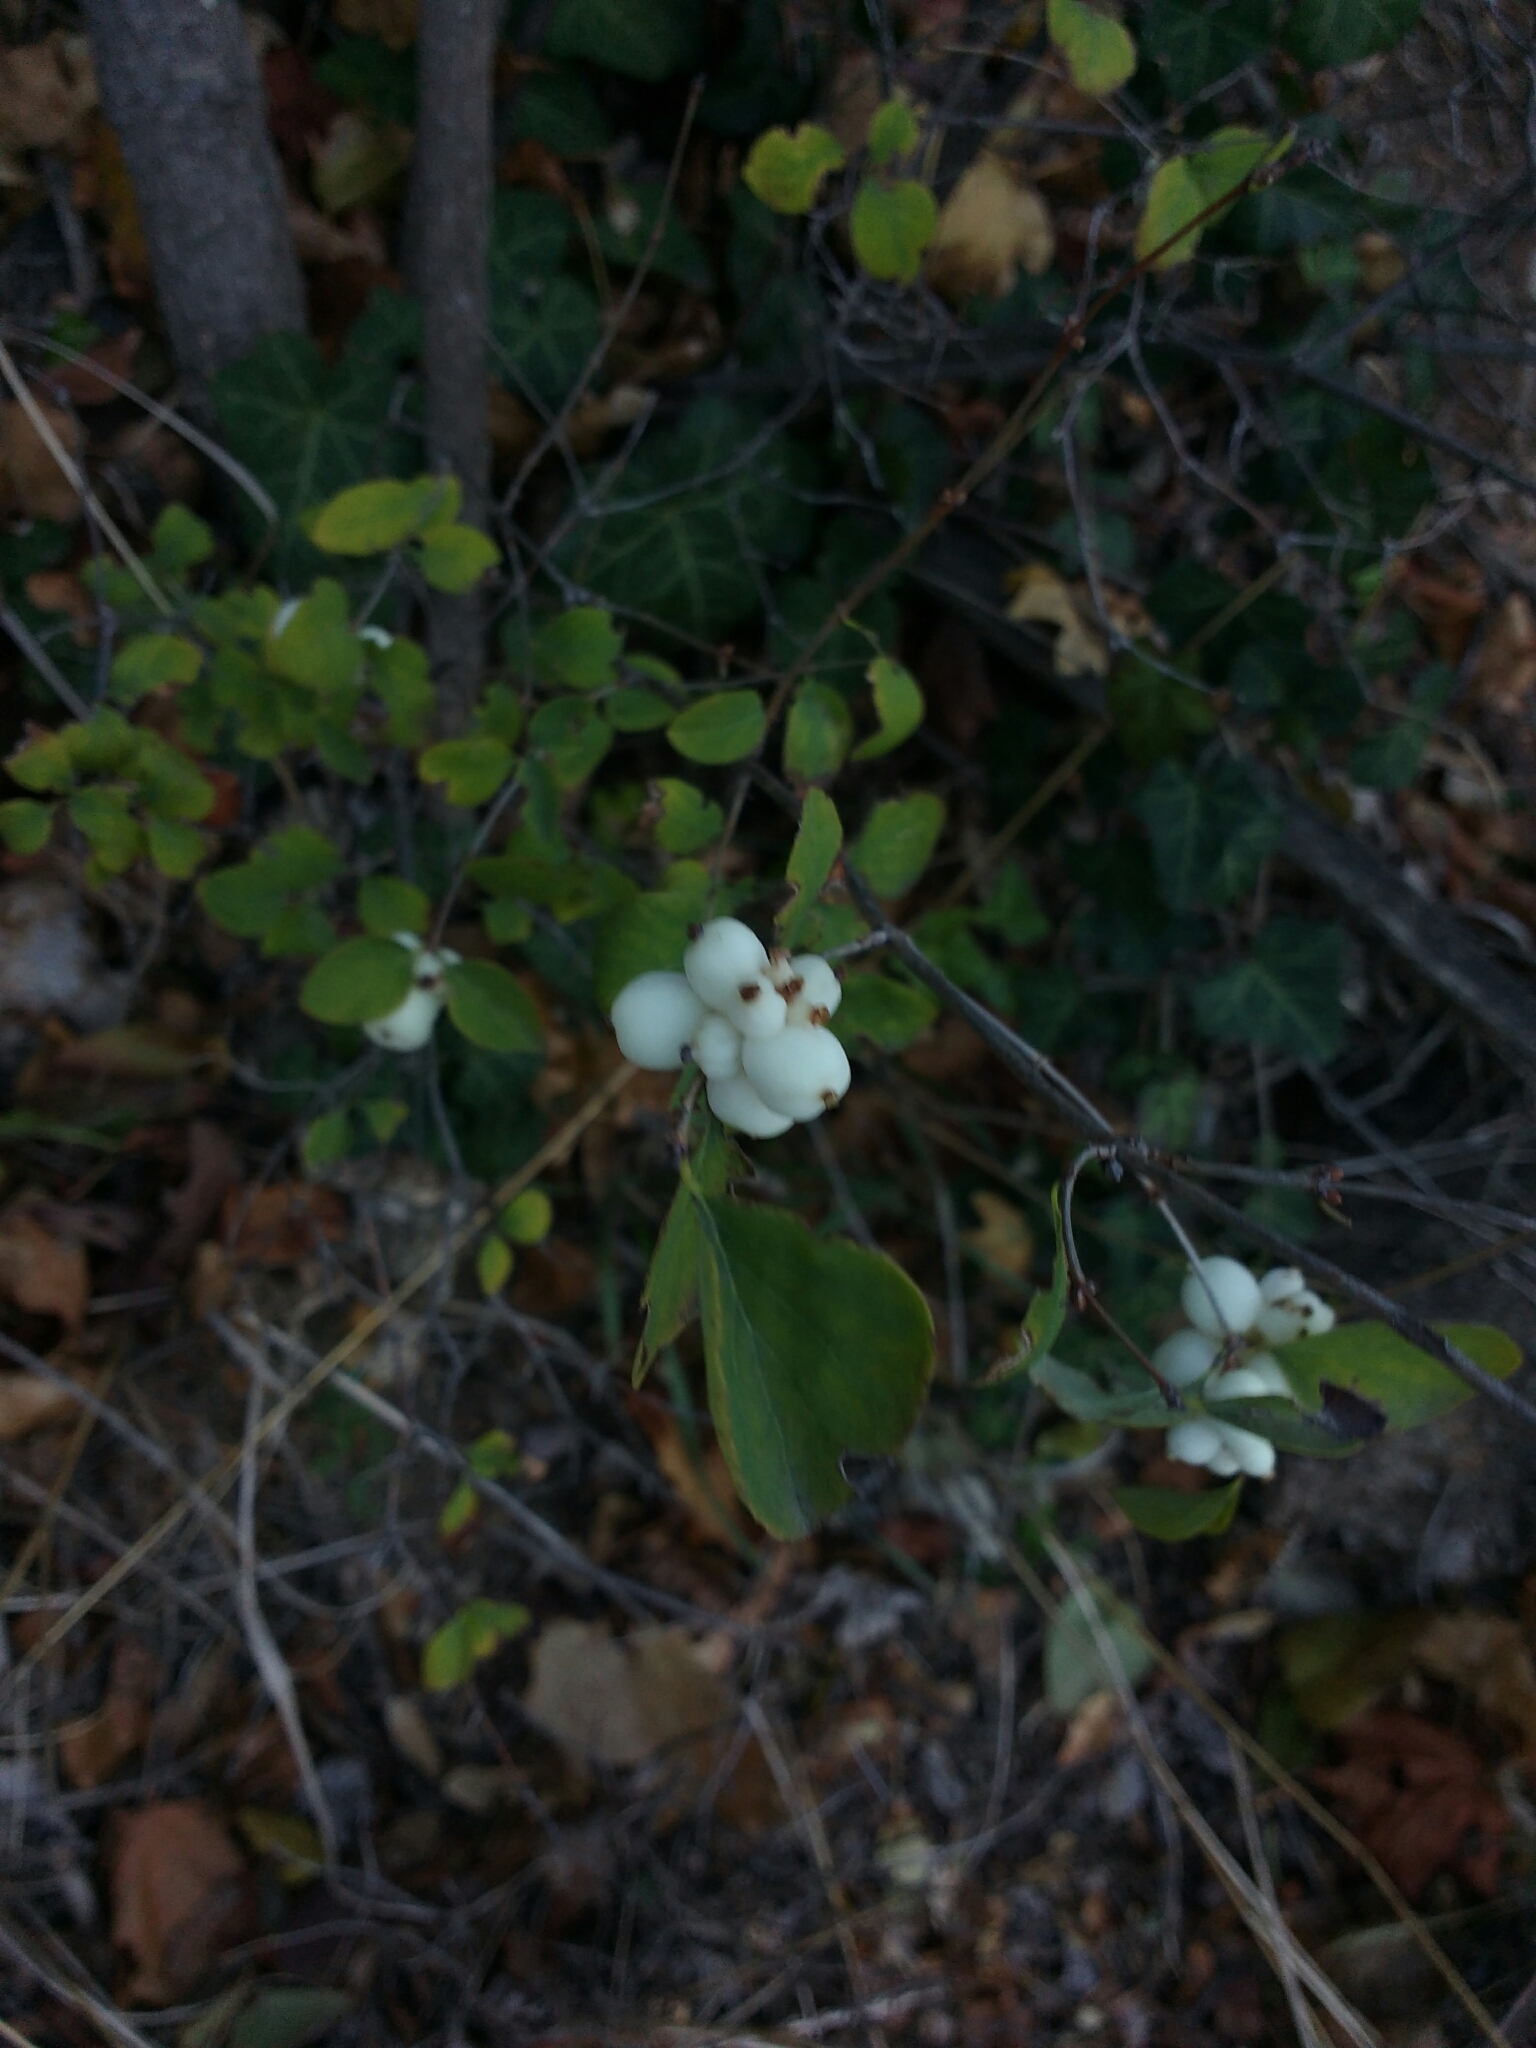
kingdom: Plantae
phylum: Tracheophyta
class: Magnoliopsida
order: Dipsacales
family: Caprifoliaceae
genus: Symphoricarpos
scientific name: Symphoricarpos albus
